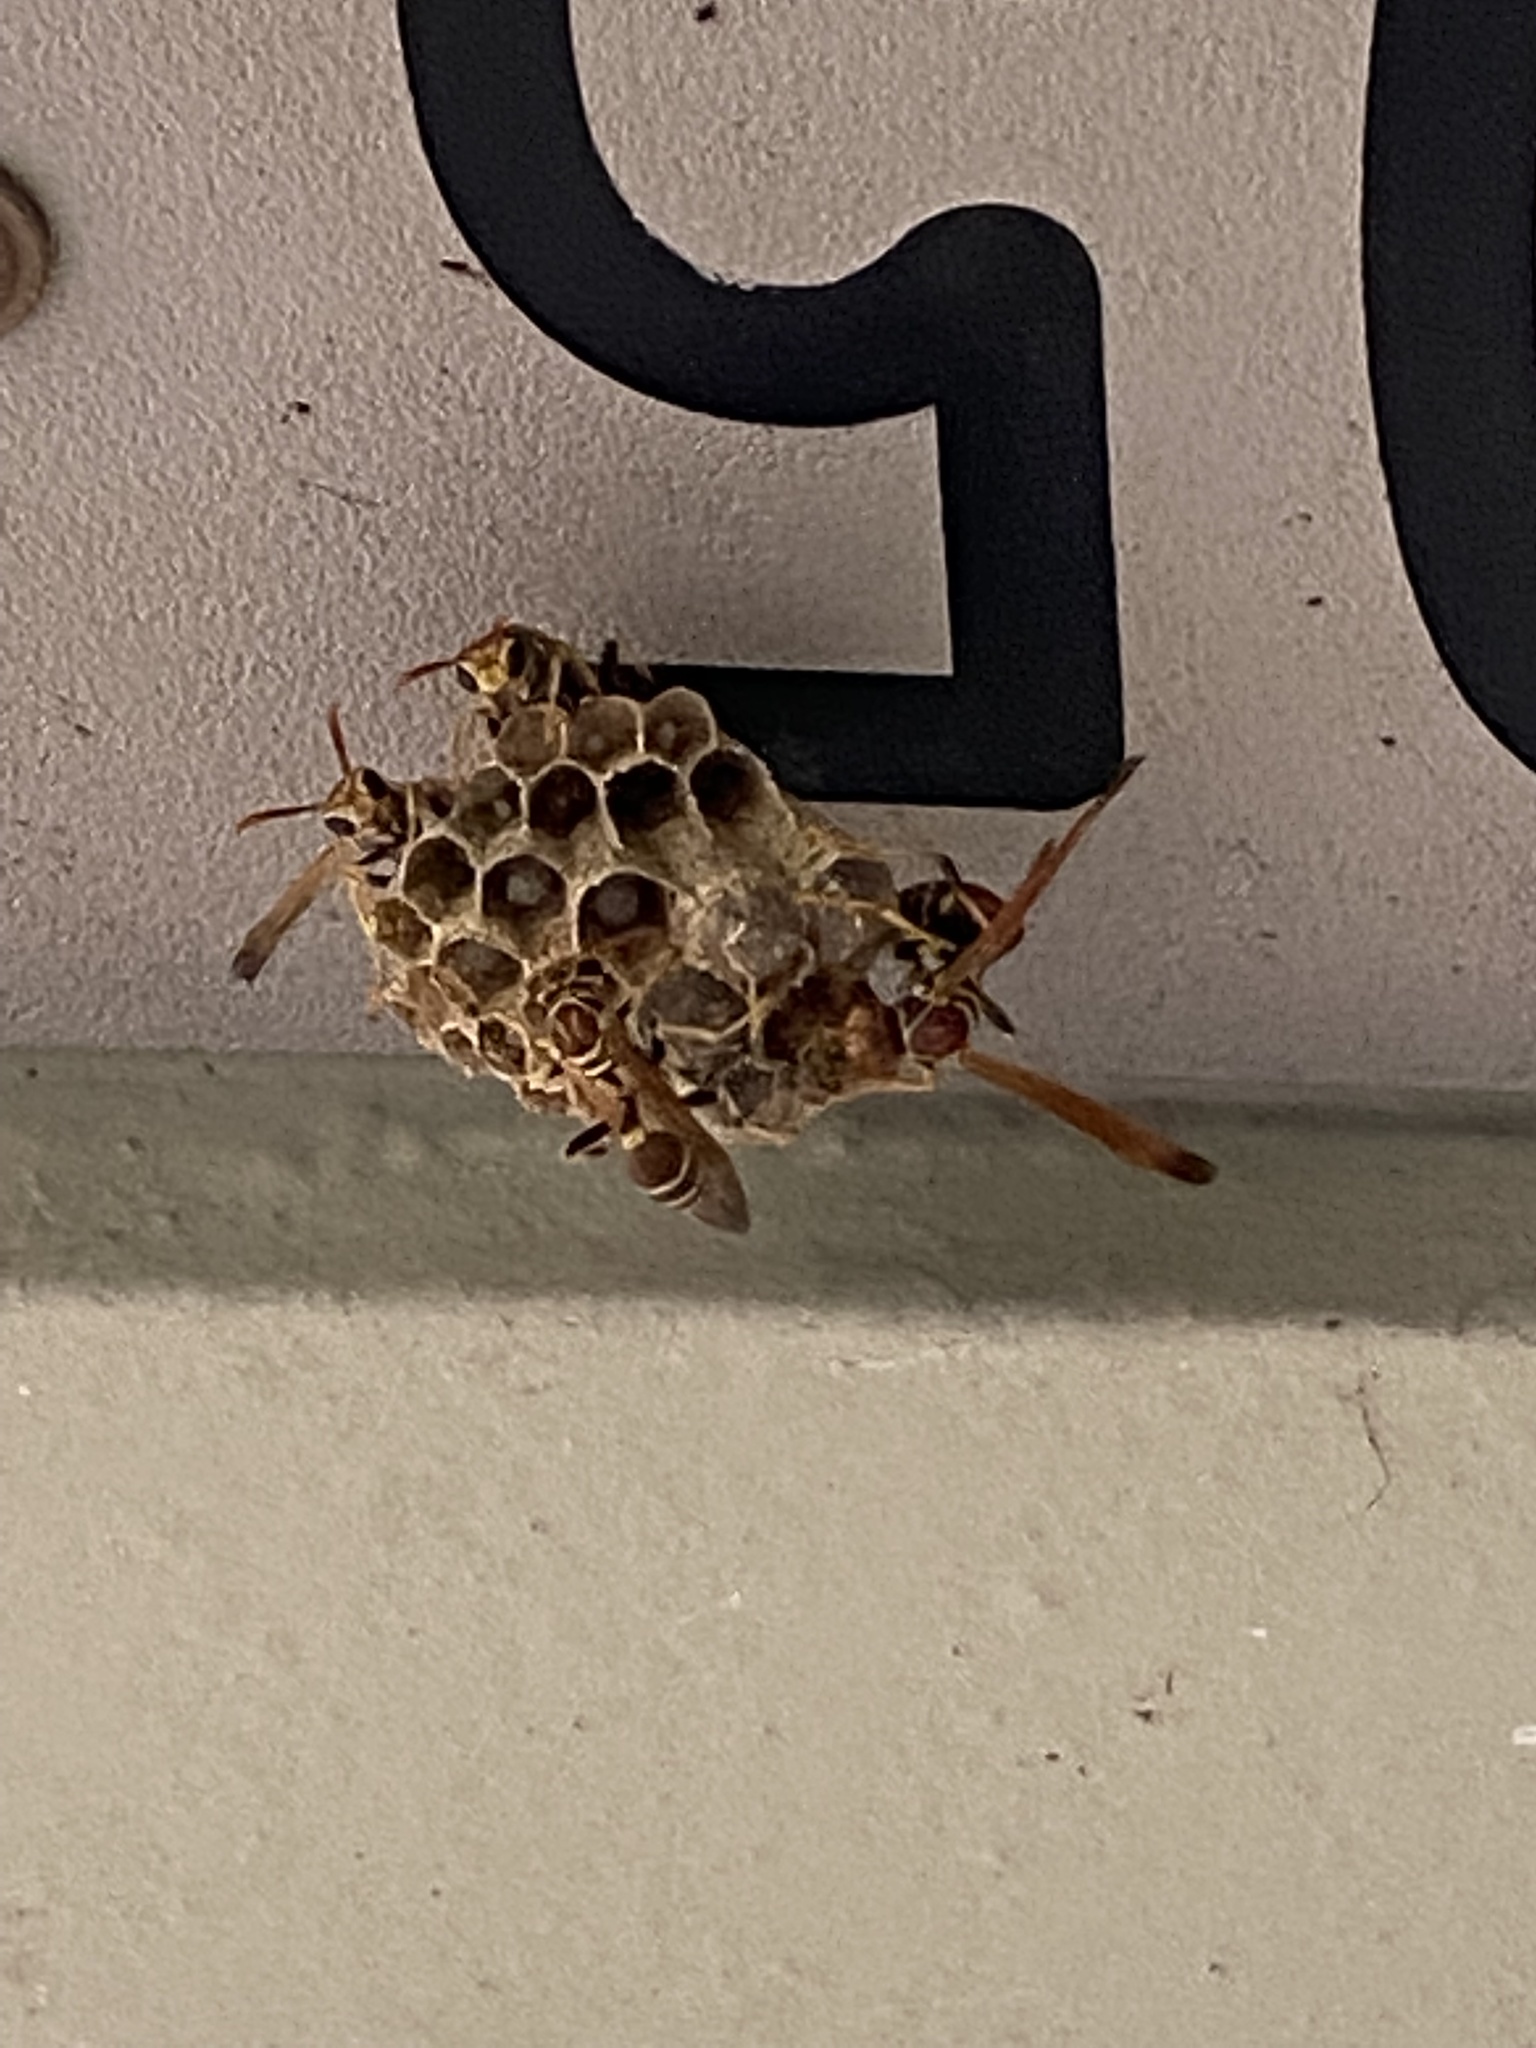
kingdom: Animalia
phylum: Arthropoda
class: Insecta
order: Hymenoptera
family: Vespidae
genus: Mischocyttarus
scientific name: Mischocyttarus mexicanus
